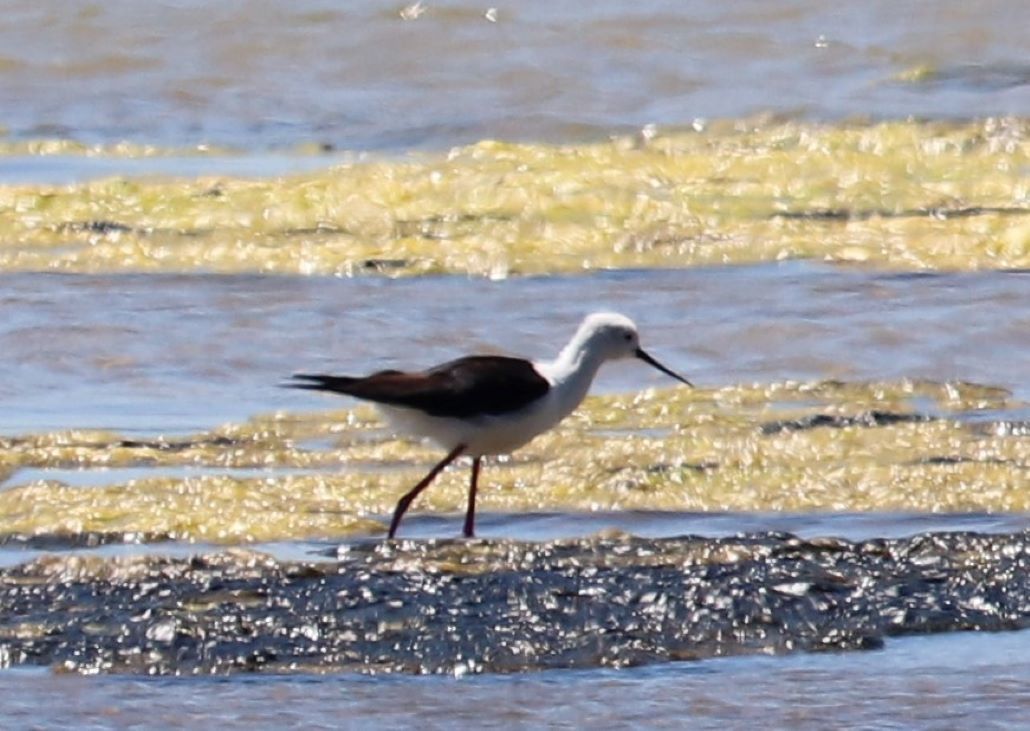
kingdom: Animalia
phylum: Chordata
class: Aves
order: Charadriiformes
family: Recurvirostridae
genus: Himantopus
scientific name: Himantopus himantopus
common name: Black-winged stilt
